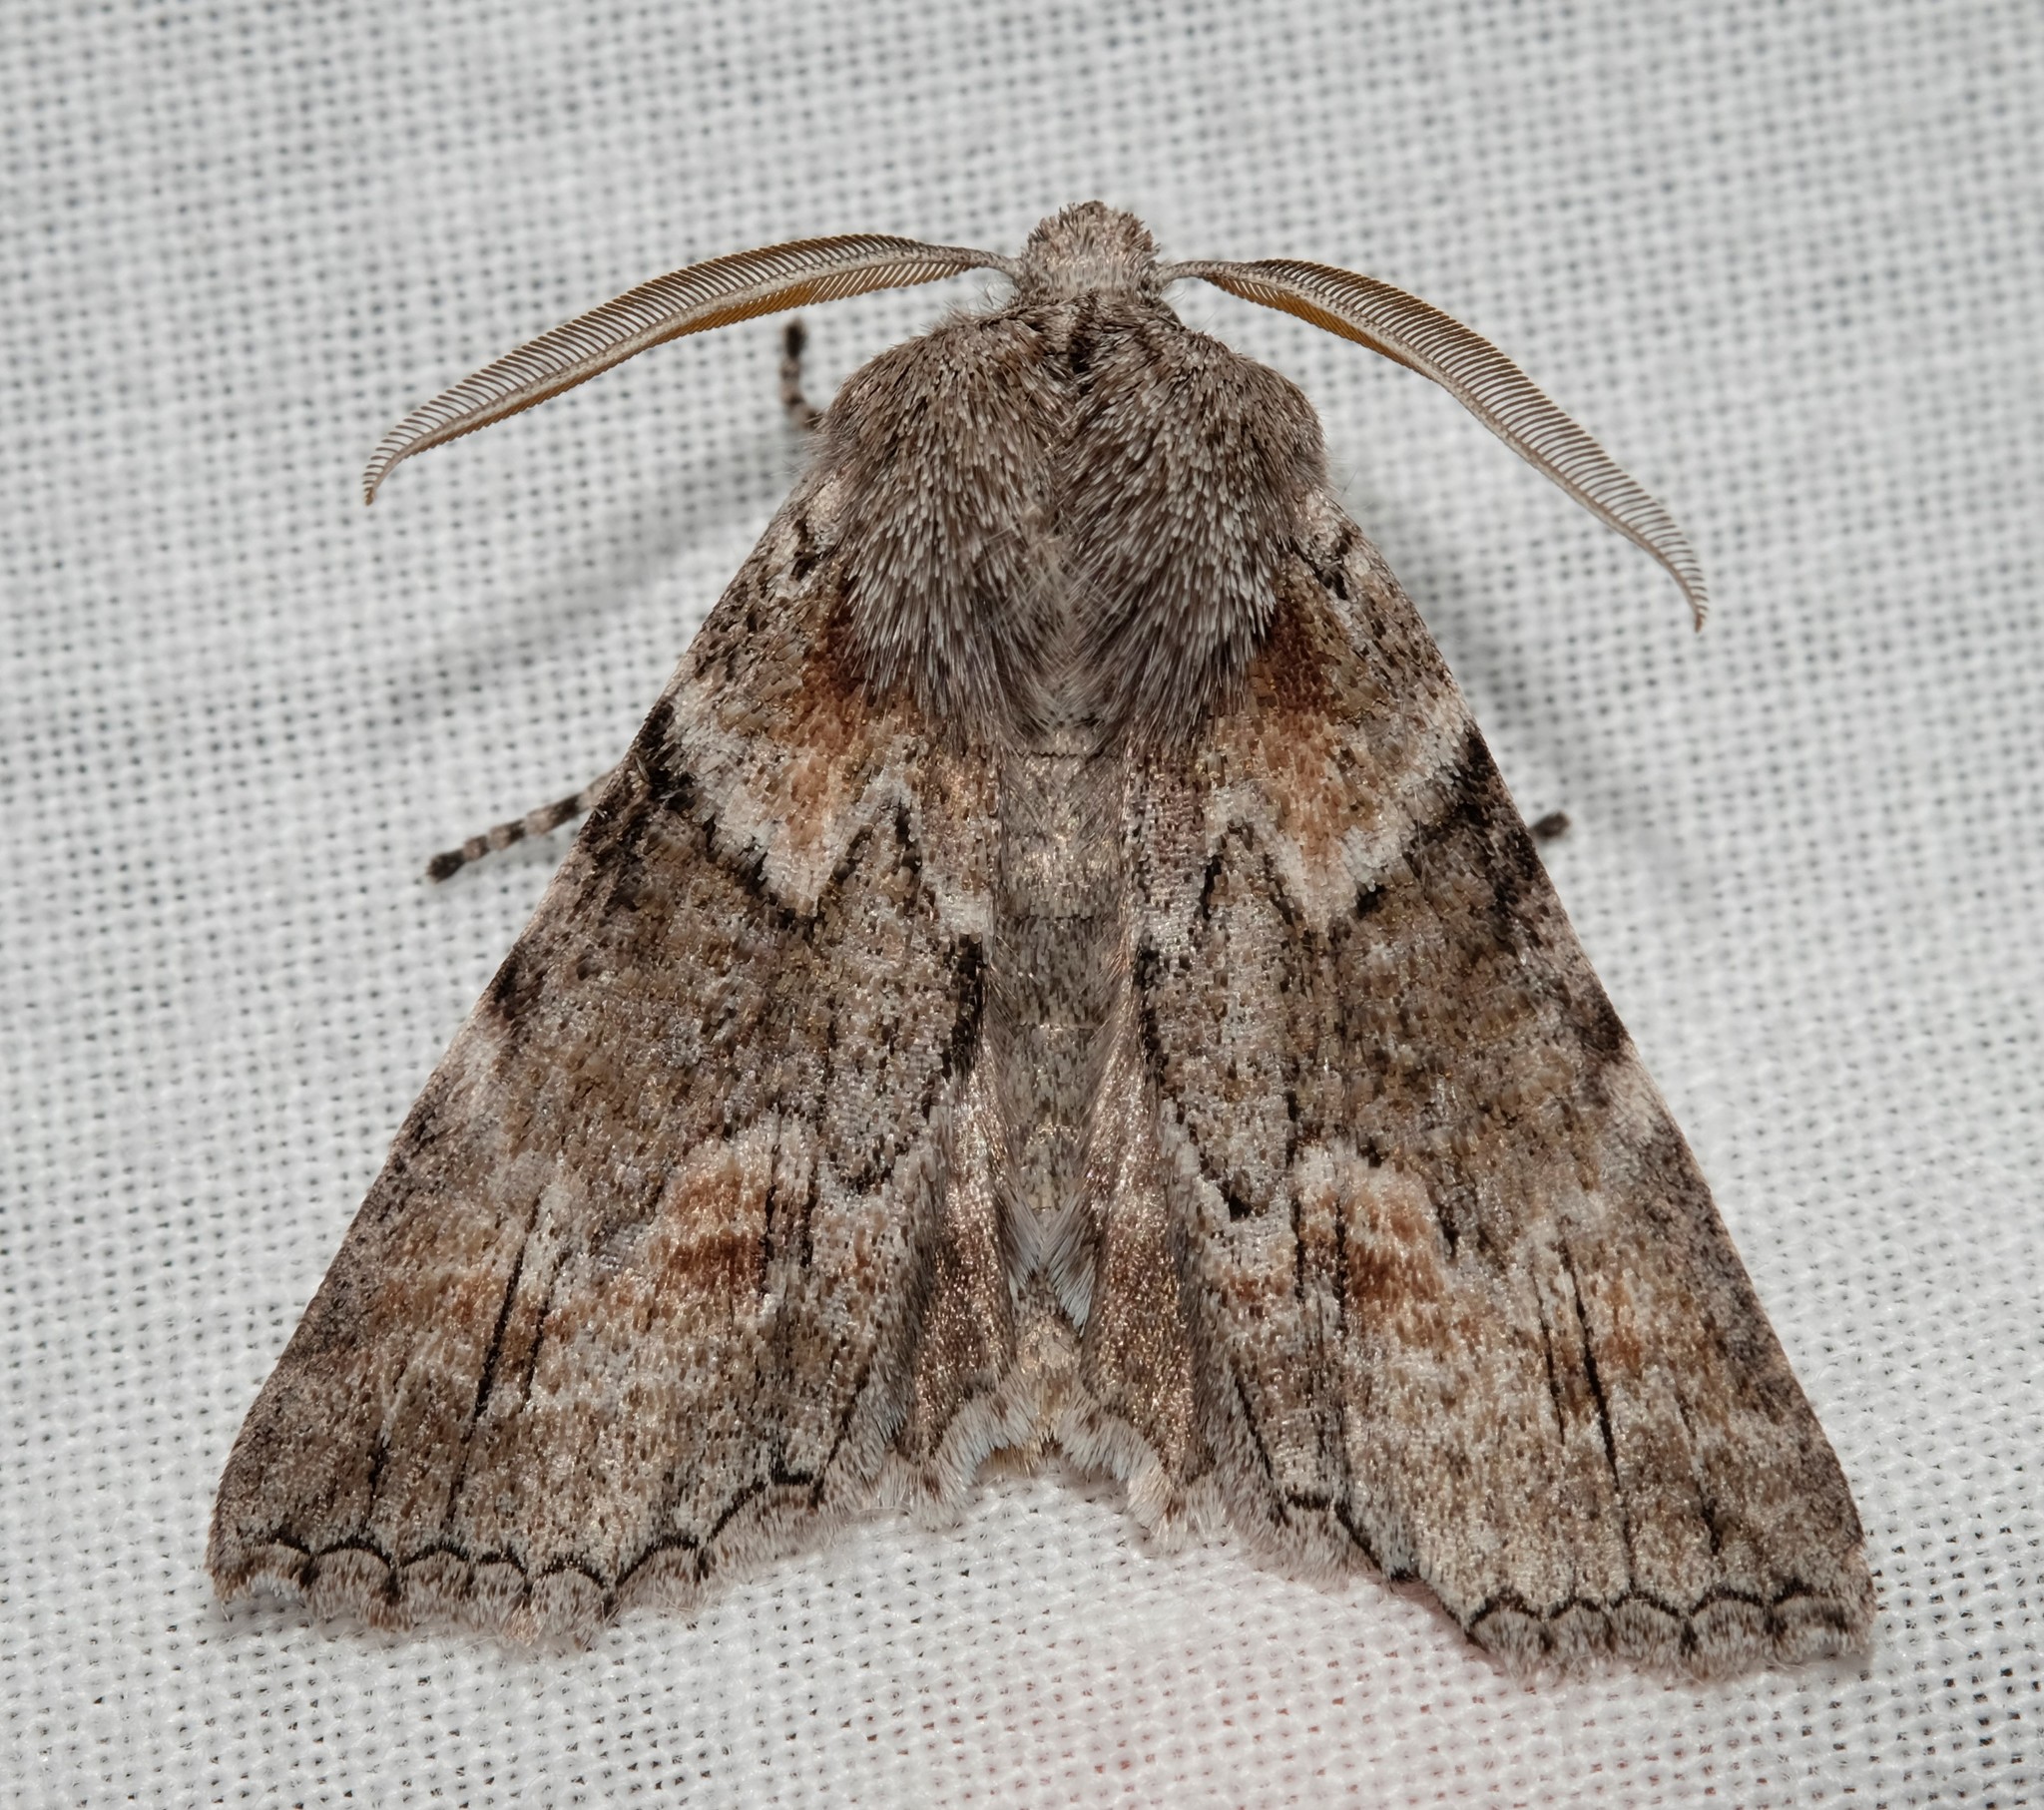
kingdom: Animalia
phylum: Arthropoda
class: Insecta
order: Lepidoptera
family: Geometridae
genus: Nisista
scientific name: Nisista galearia
